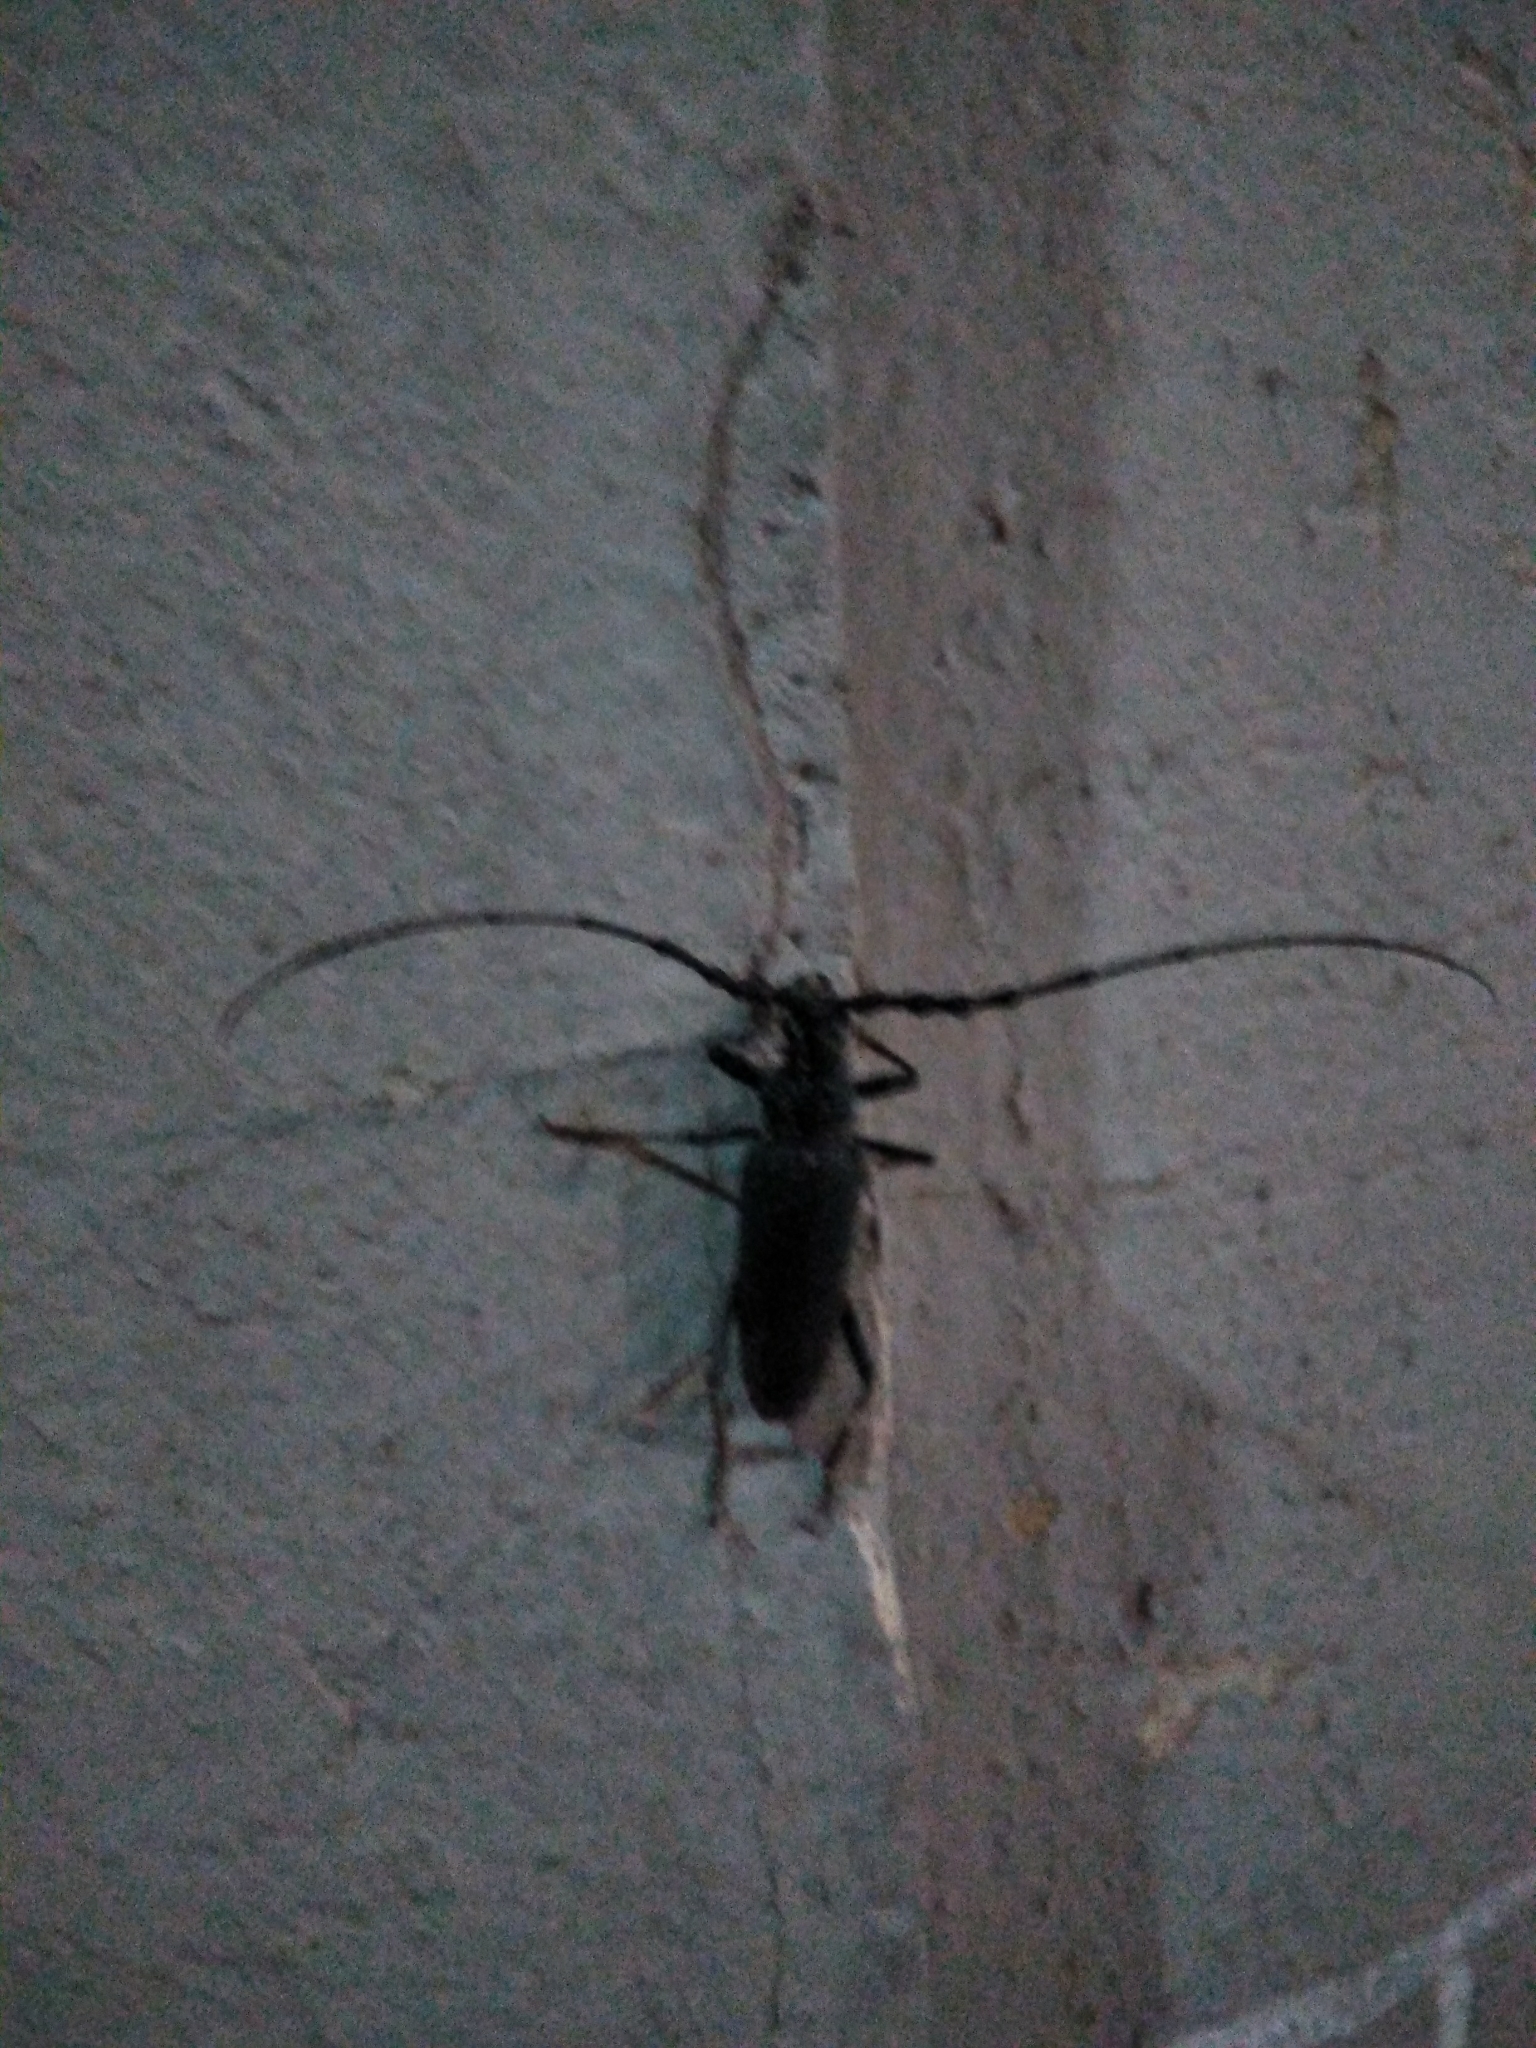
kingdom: Animalia
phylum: Arthropoda
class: Insecta
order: Coleoptera
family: Cerambycidae
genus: Cerambyx
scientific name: Cerambyx cerdo
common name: Cerambyx longicorn
